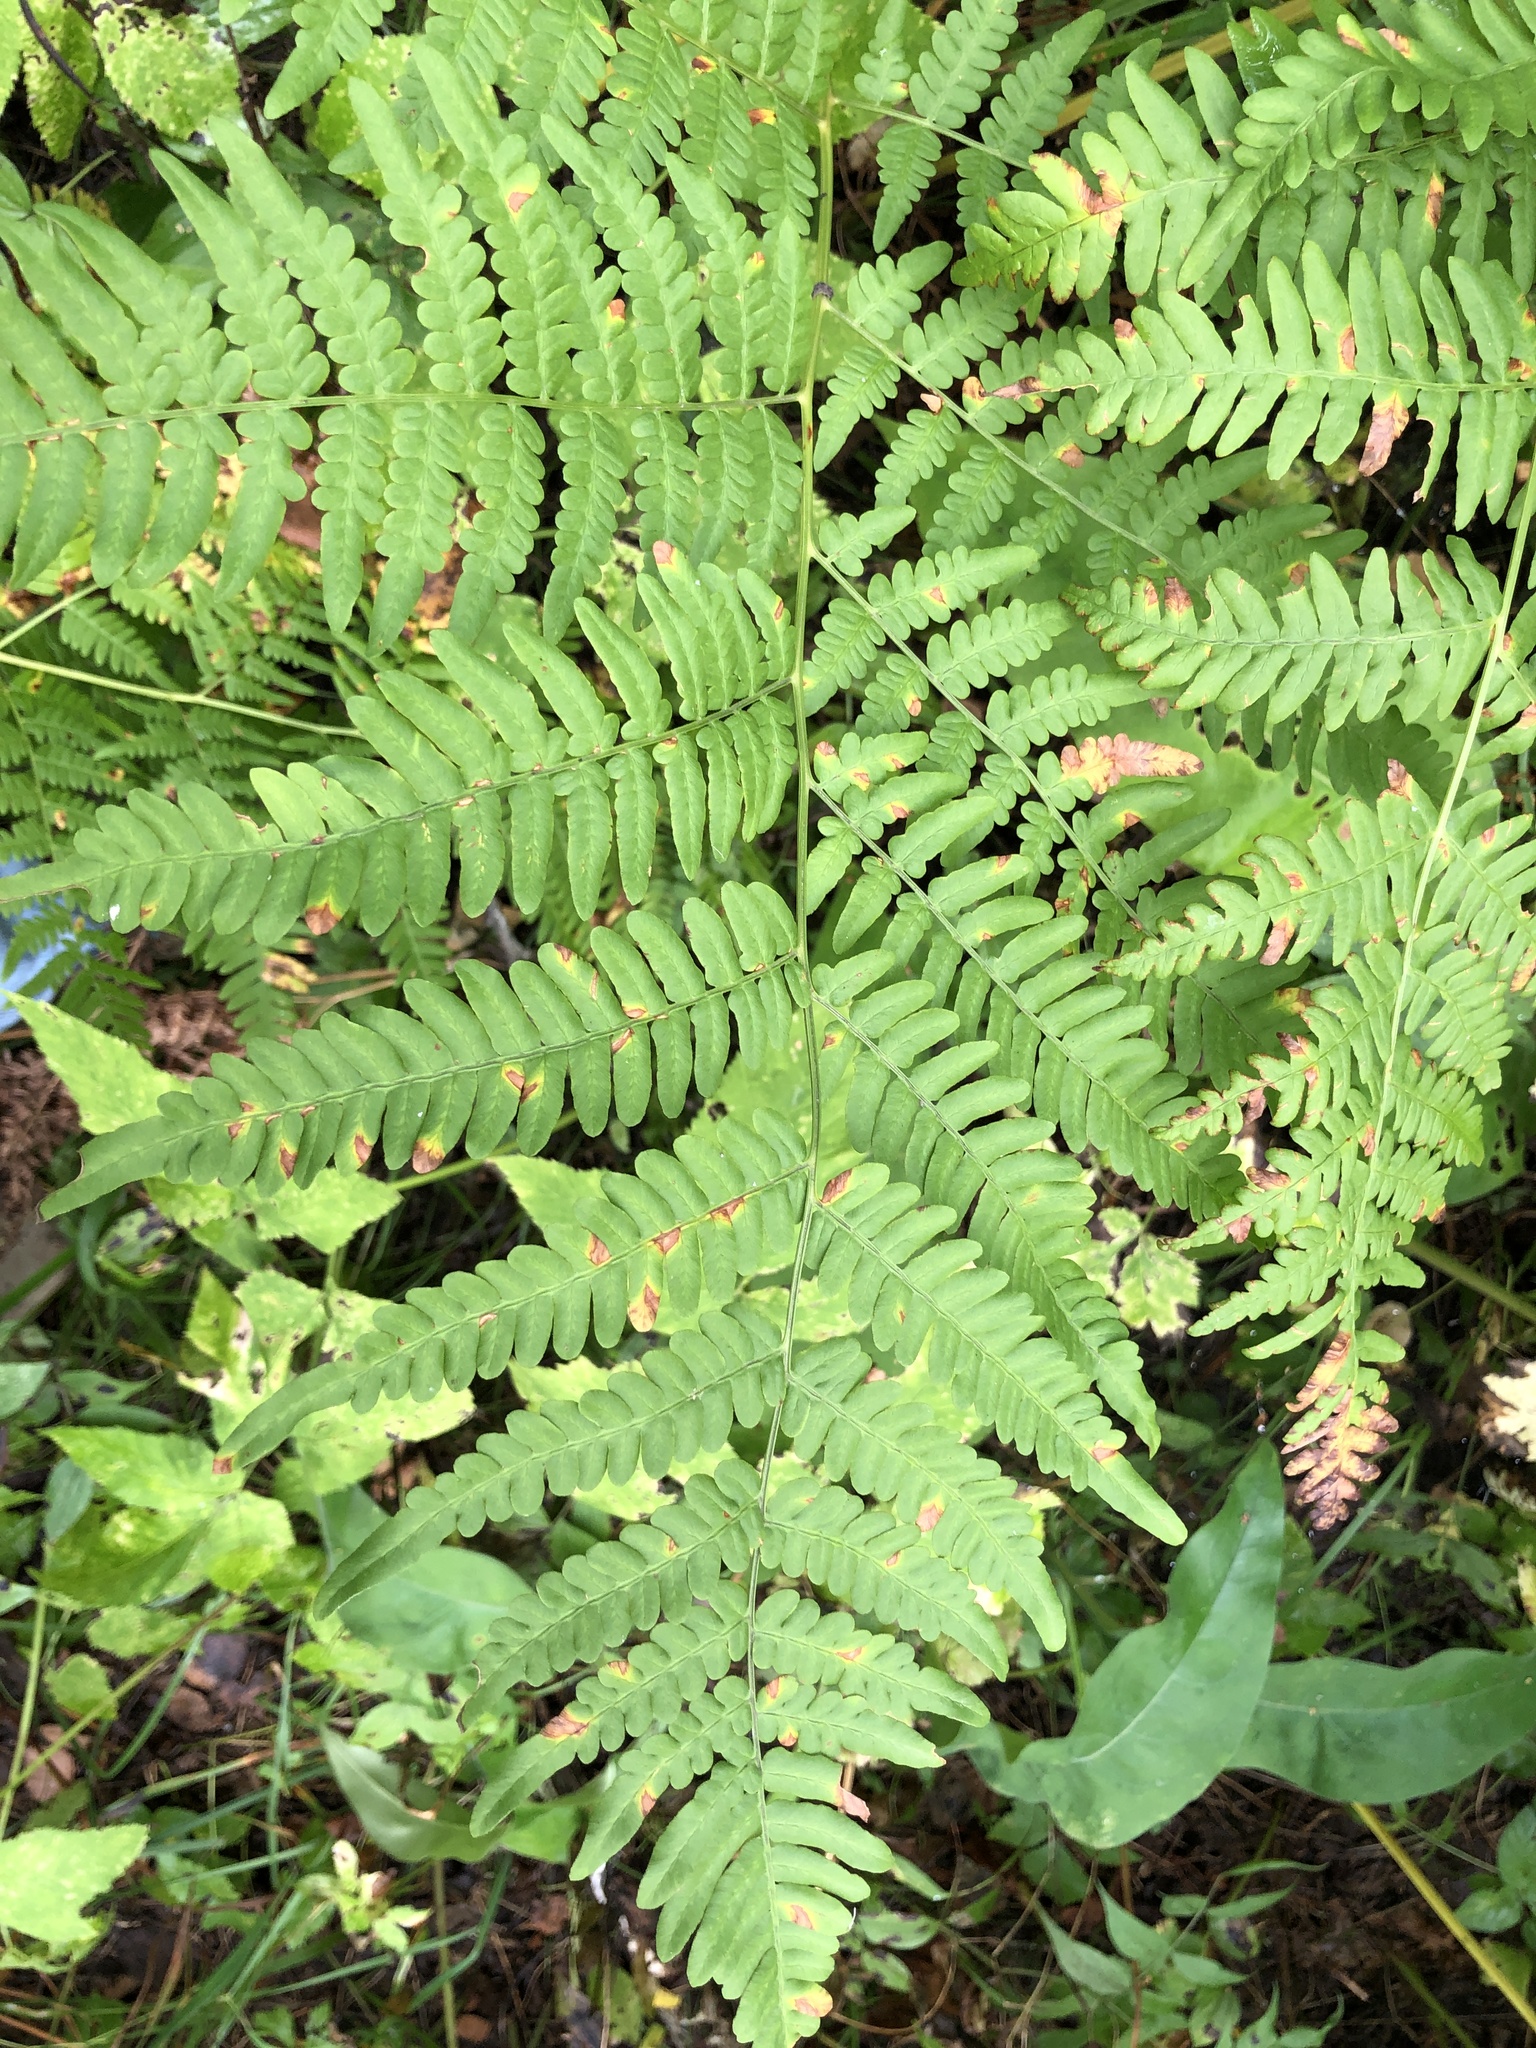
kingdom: Plantae
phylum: Tracheophyta
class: Polypodiopsida
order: Polypodiales
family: Dennstaedtiaceae
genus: Pteridium
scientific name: Pteridium aquilinum
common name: Bracken
